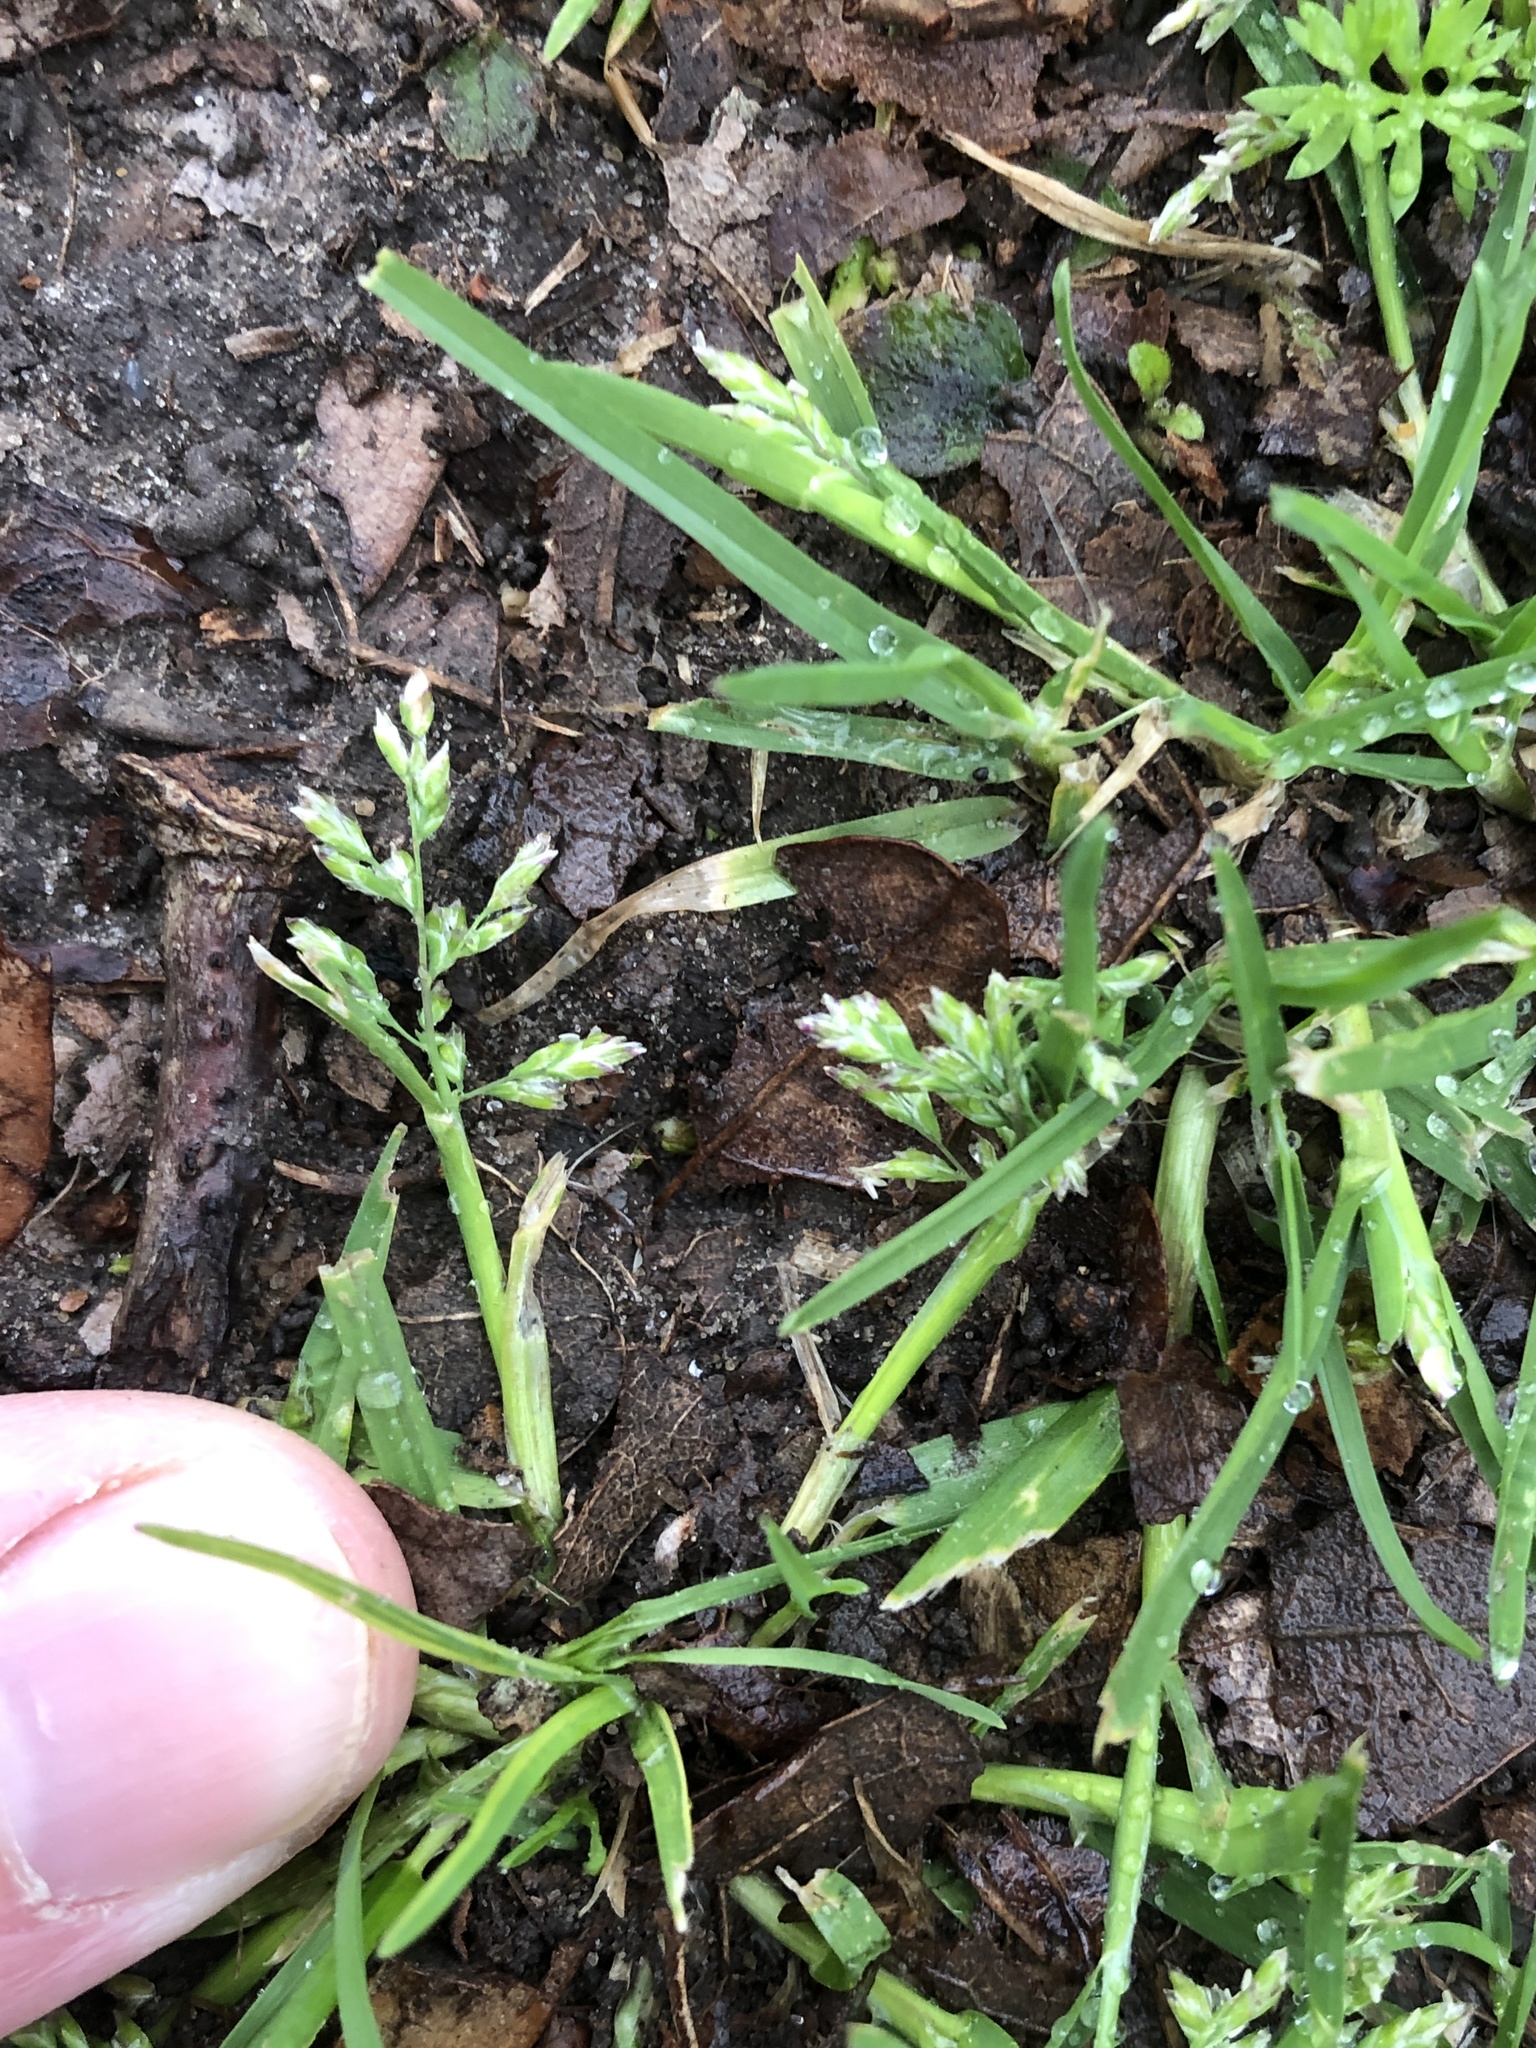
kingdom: Plantae
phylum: Tracheophyta
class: Liliopsida
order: Poales
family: Poaceae
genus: Poa
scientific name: Poa annua
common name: Annual bluegrass
